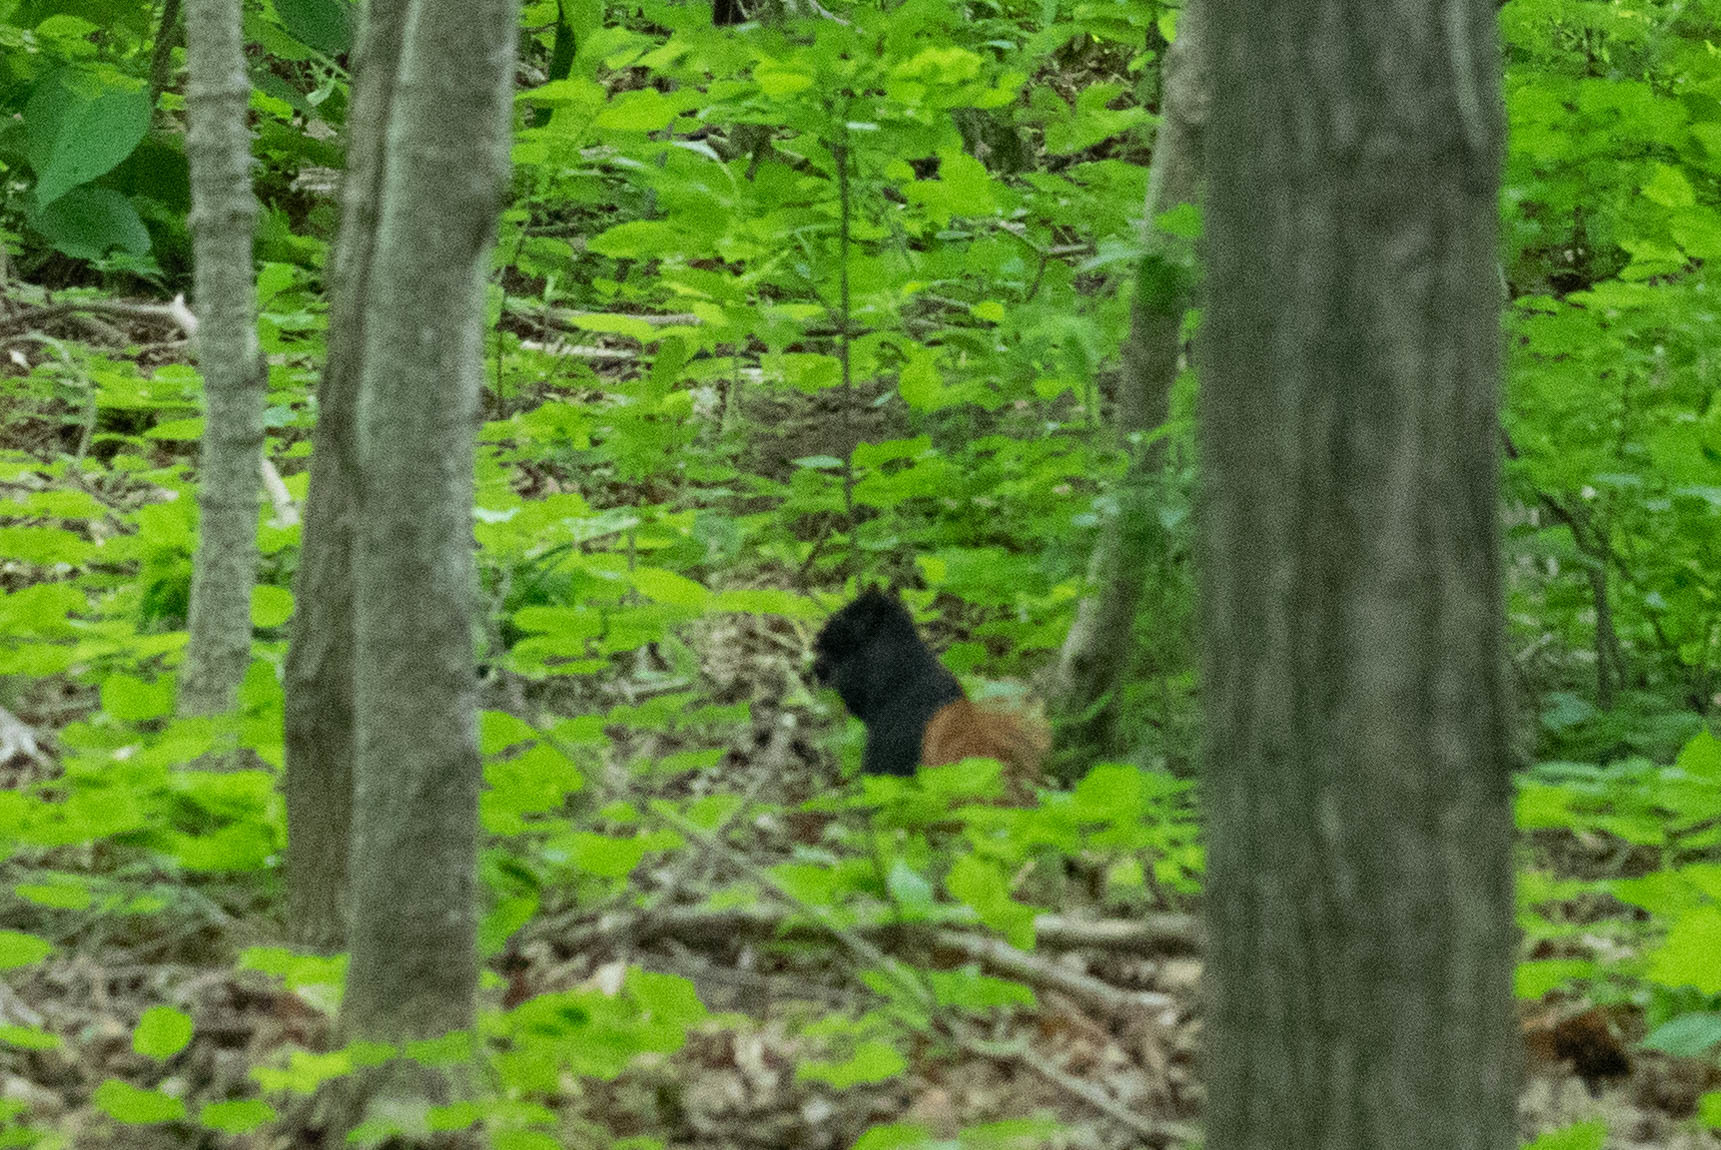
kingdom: Animalia
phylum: Chordata
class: Mammalia
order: Rodentia
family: Sciuridae
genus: Sciurus
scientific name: Sciurus carolinensis
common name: Eastern gray squirrel
